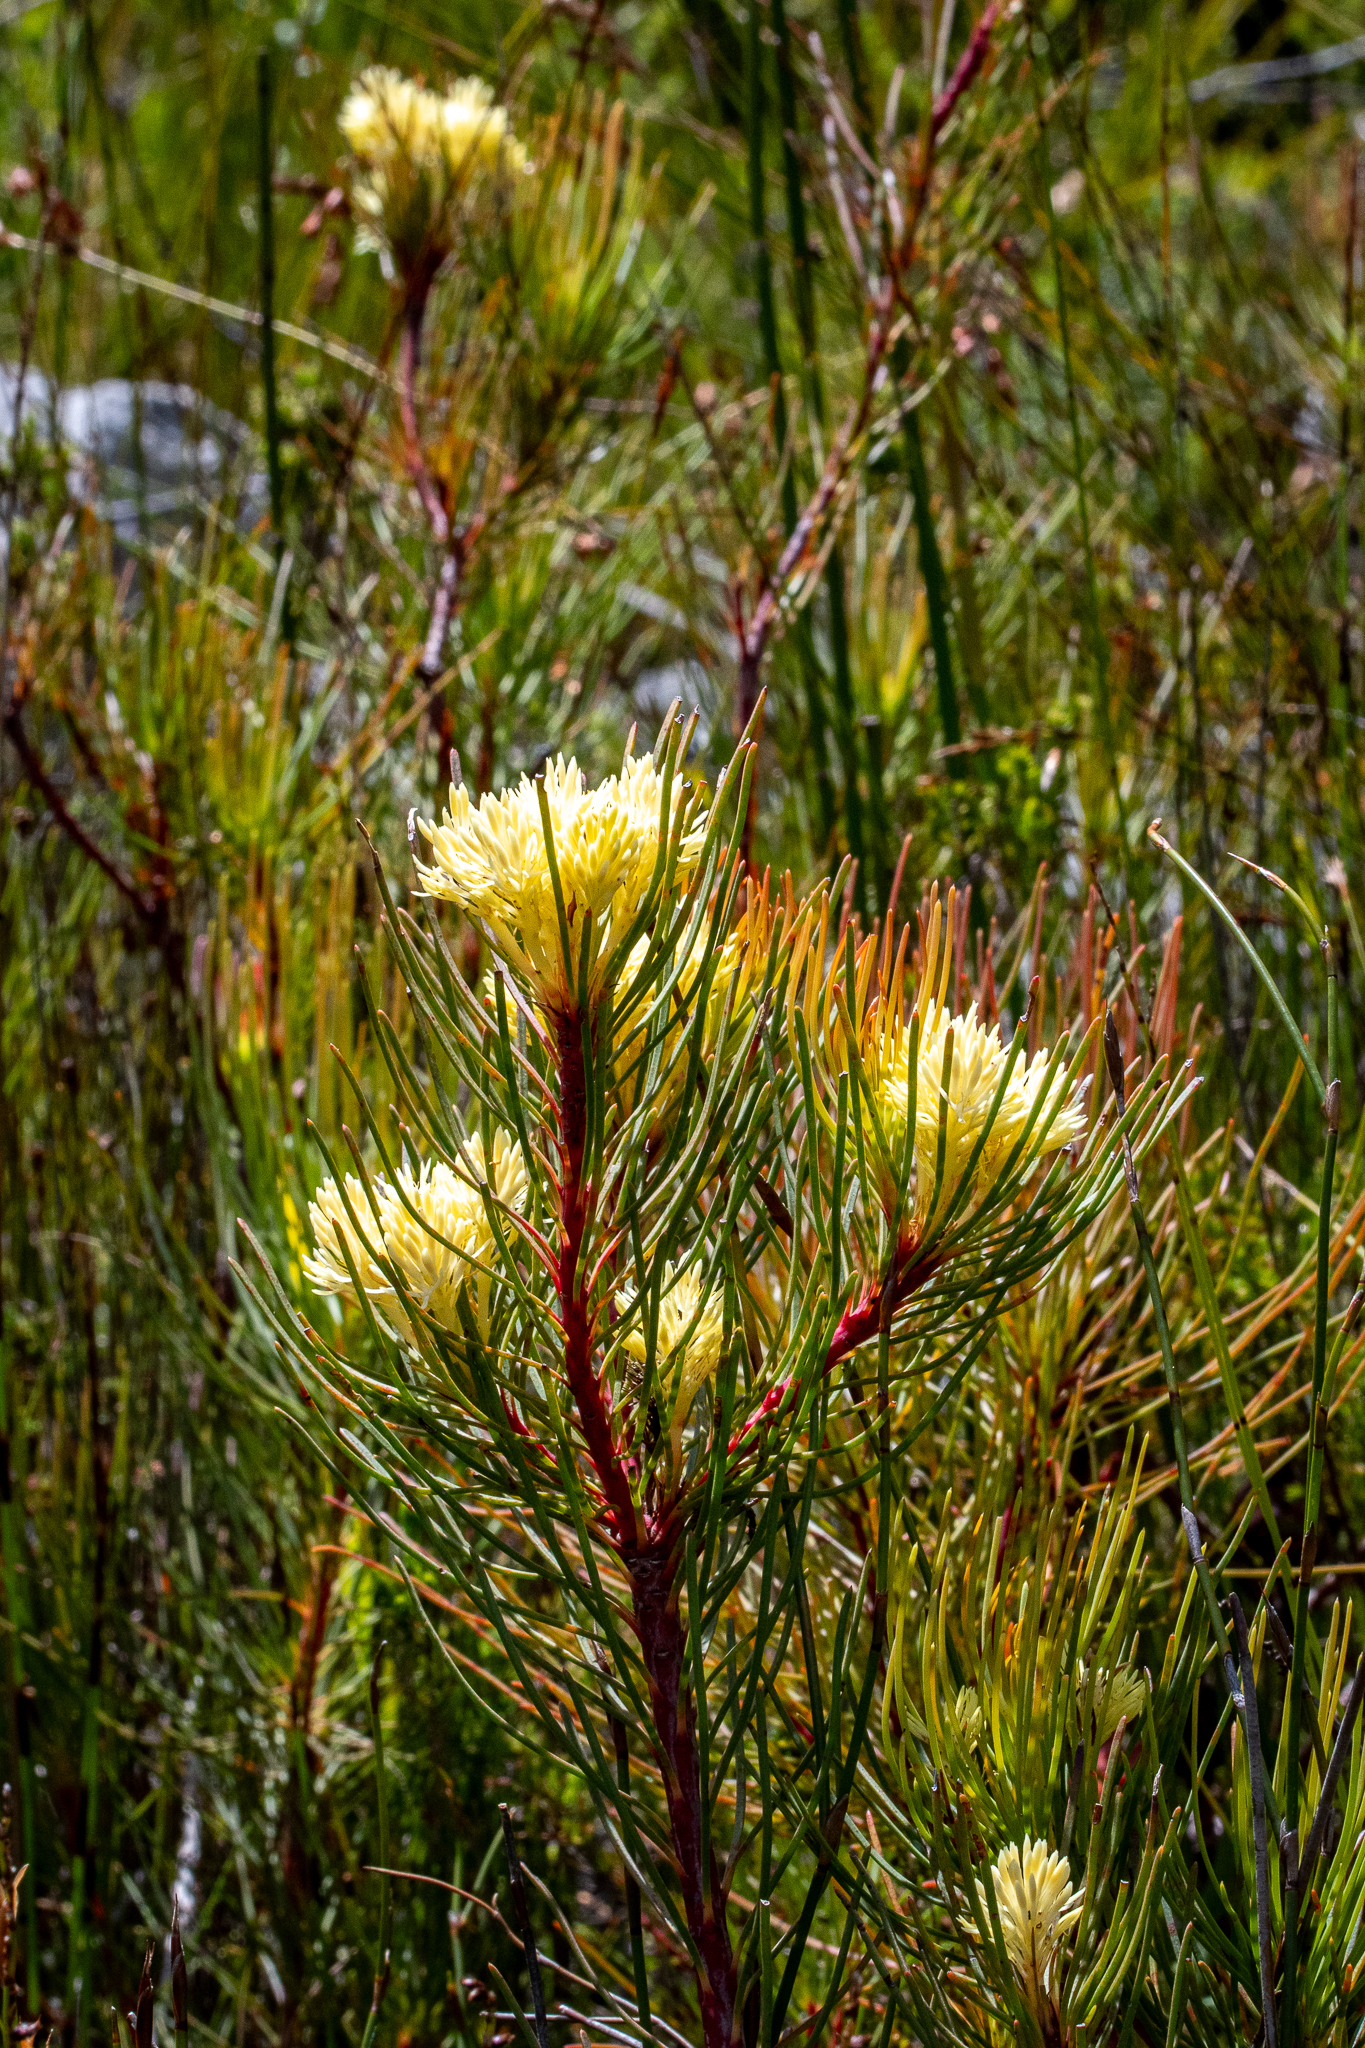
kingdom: Plantae
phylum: Tracheophyta
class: Magnoliopsida
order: Proteales
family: Proteaceae
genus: Aulax
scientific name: Aulax cancellata
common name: Channel-leaf featherbush
